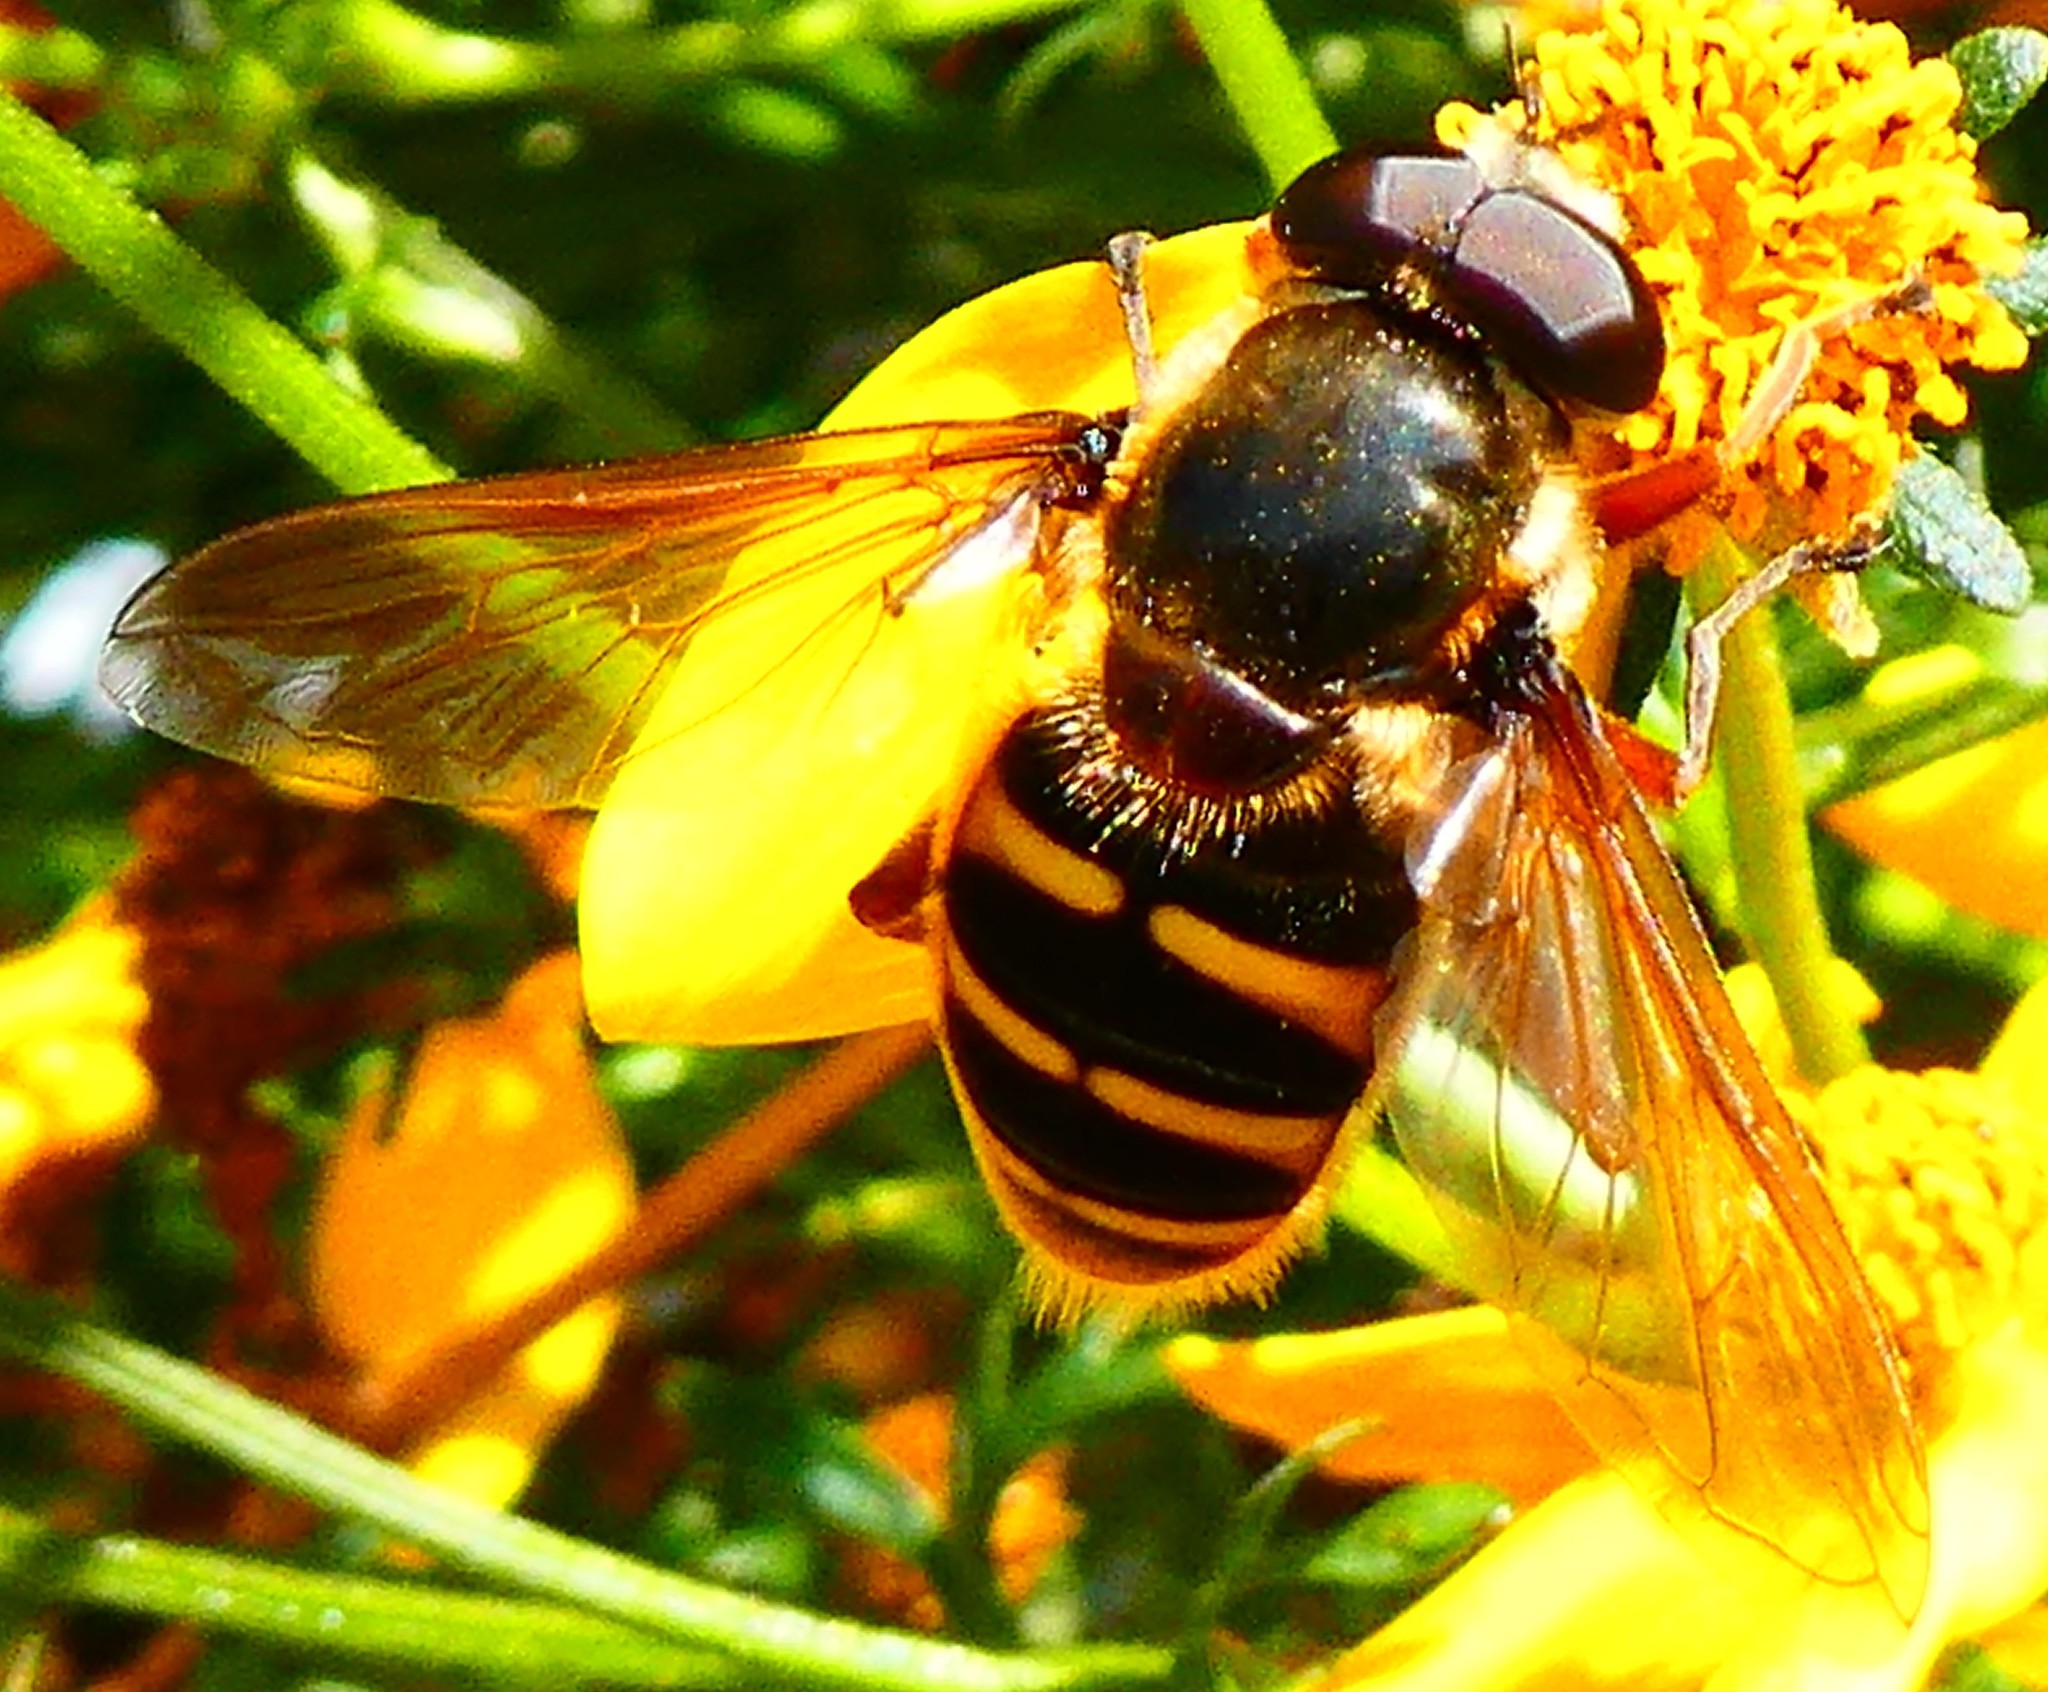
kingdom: Animalia
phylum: Arthropoda
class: Insecta
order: Diptera
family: Syrphidae
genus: Sericomyia
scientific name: Sericomyia silentis
